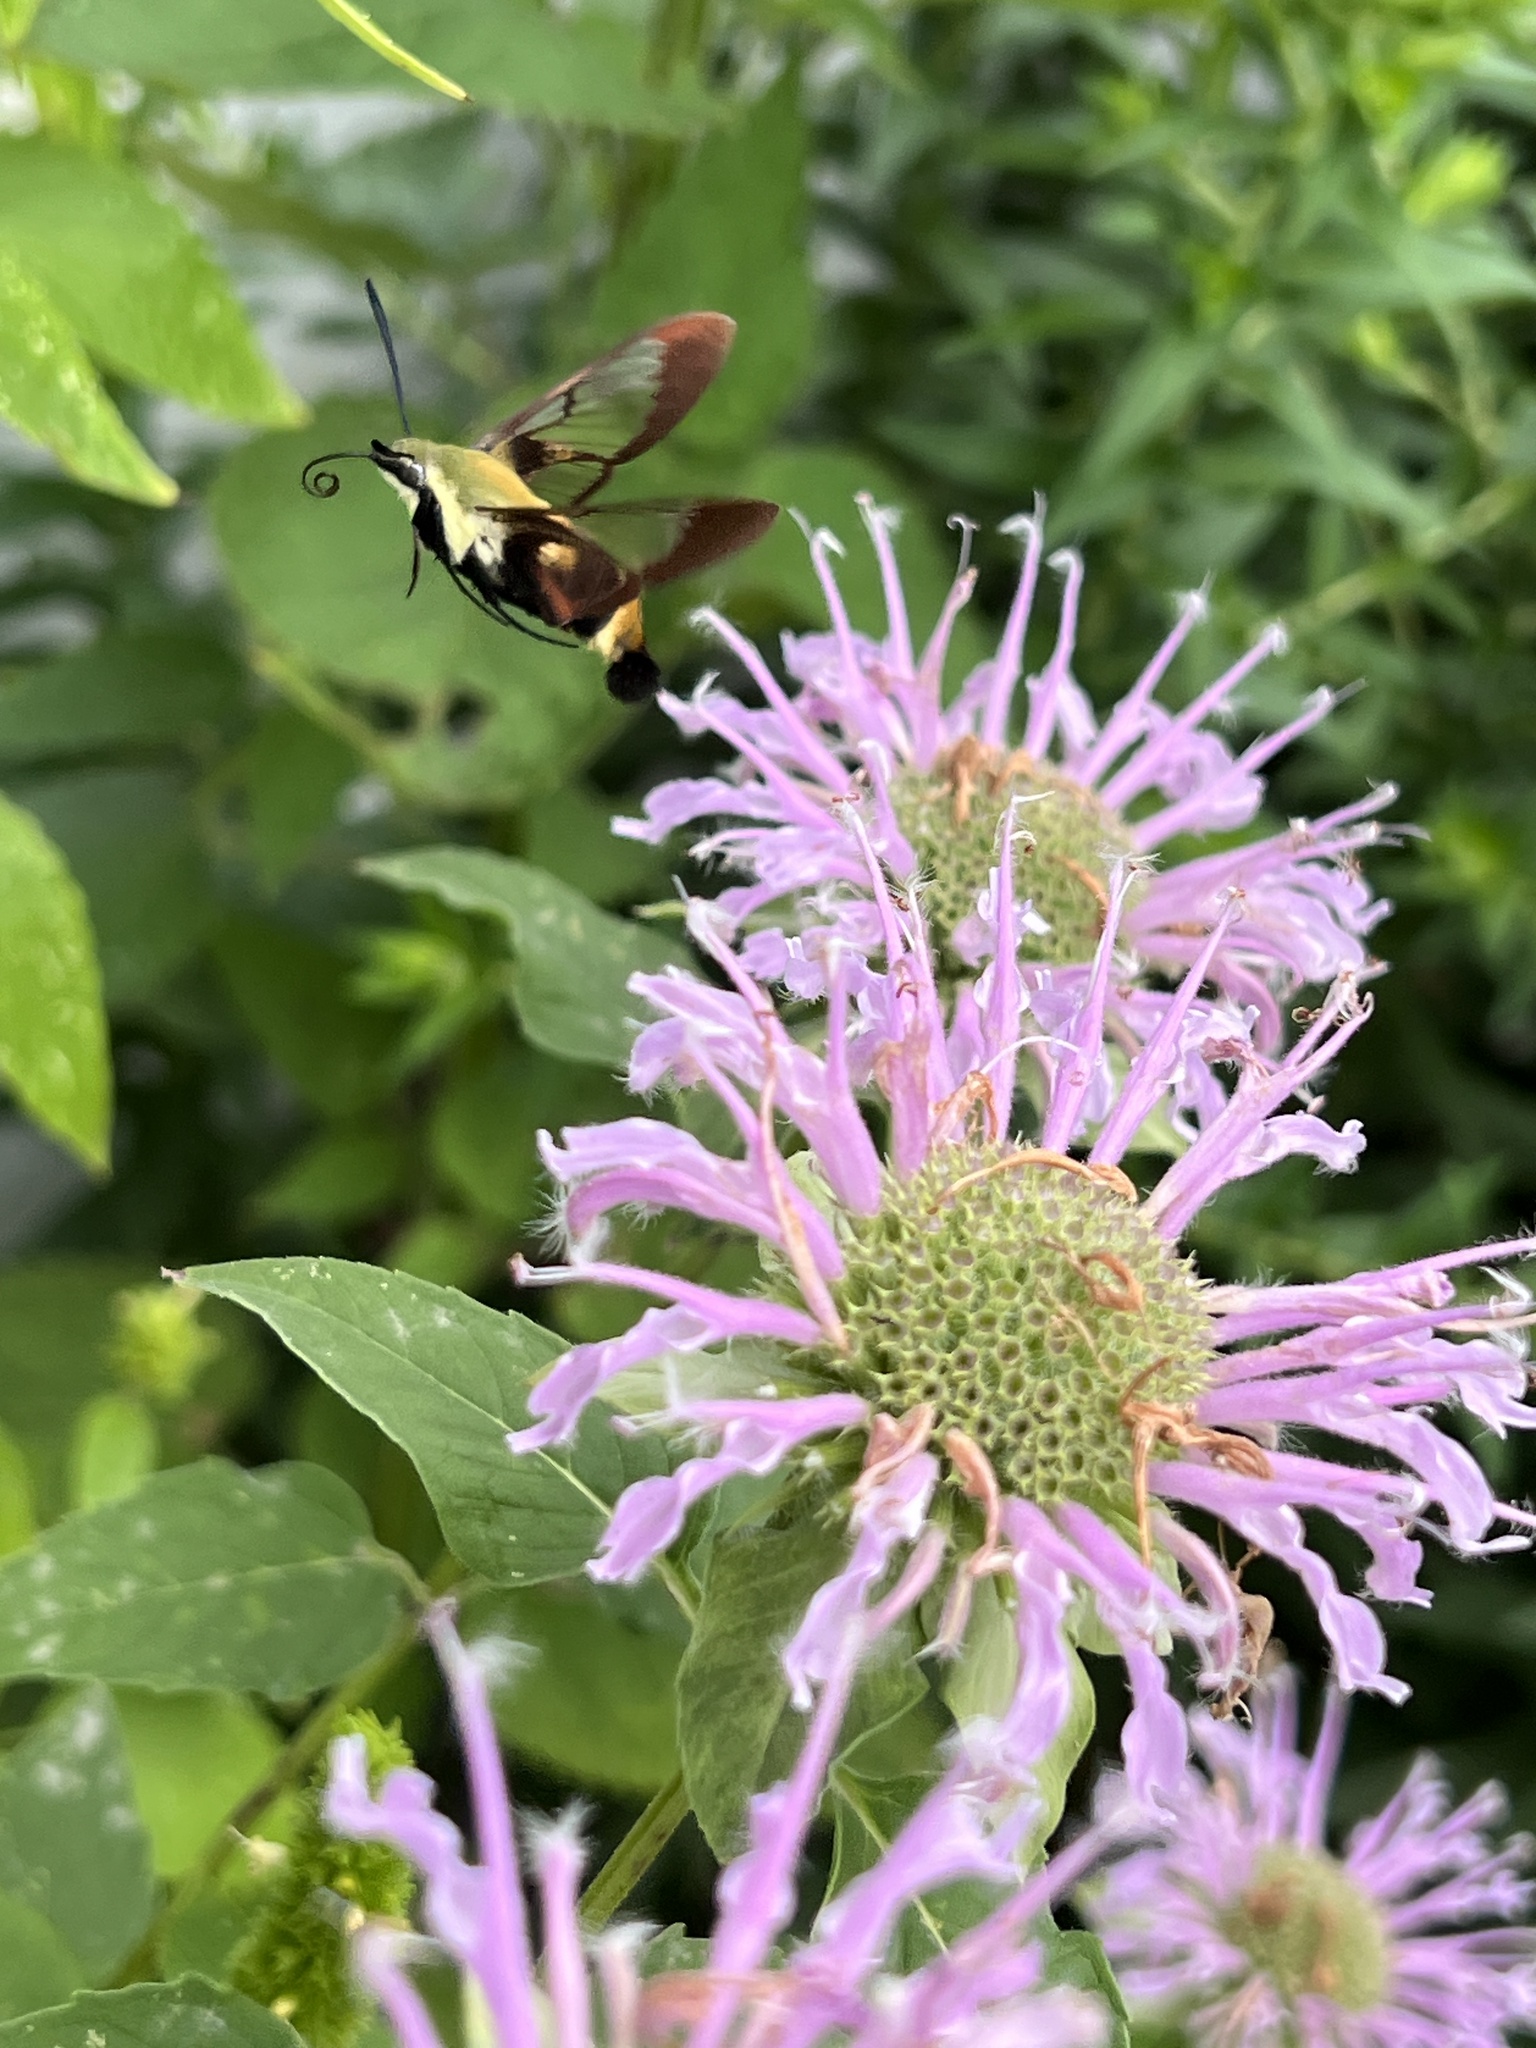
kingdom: Animalia
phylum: Arthropoda
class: Insecta
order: Lepidoptera
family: Sphingidae
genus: Hemaris
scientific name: Hemaris diffinis
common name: Bumblebee moth
